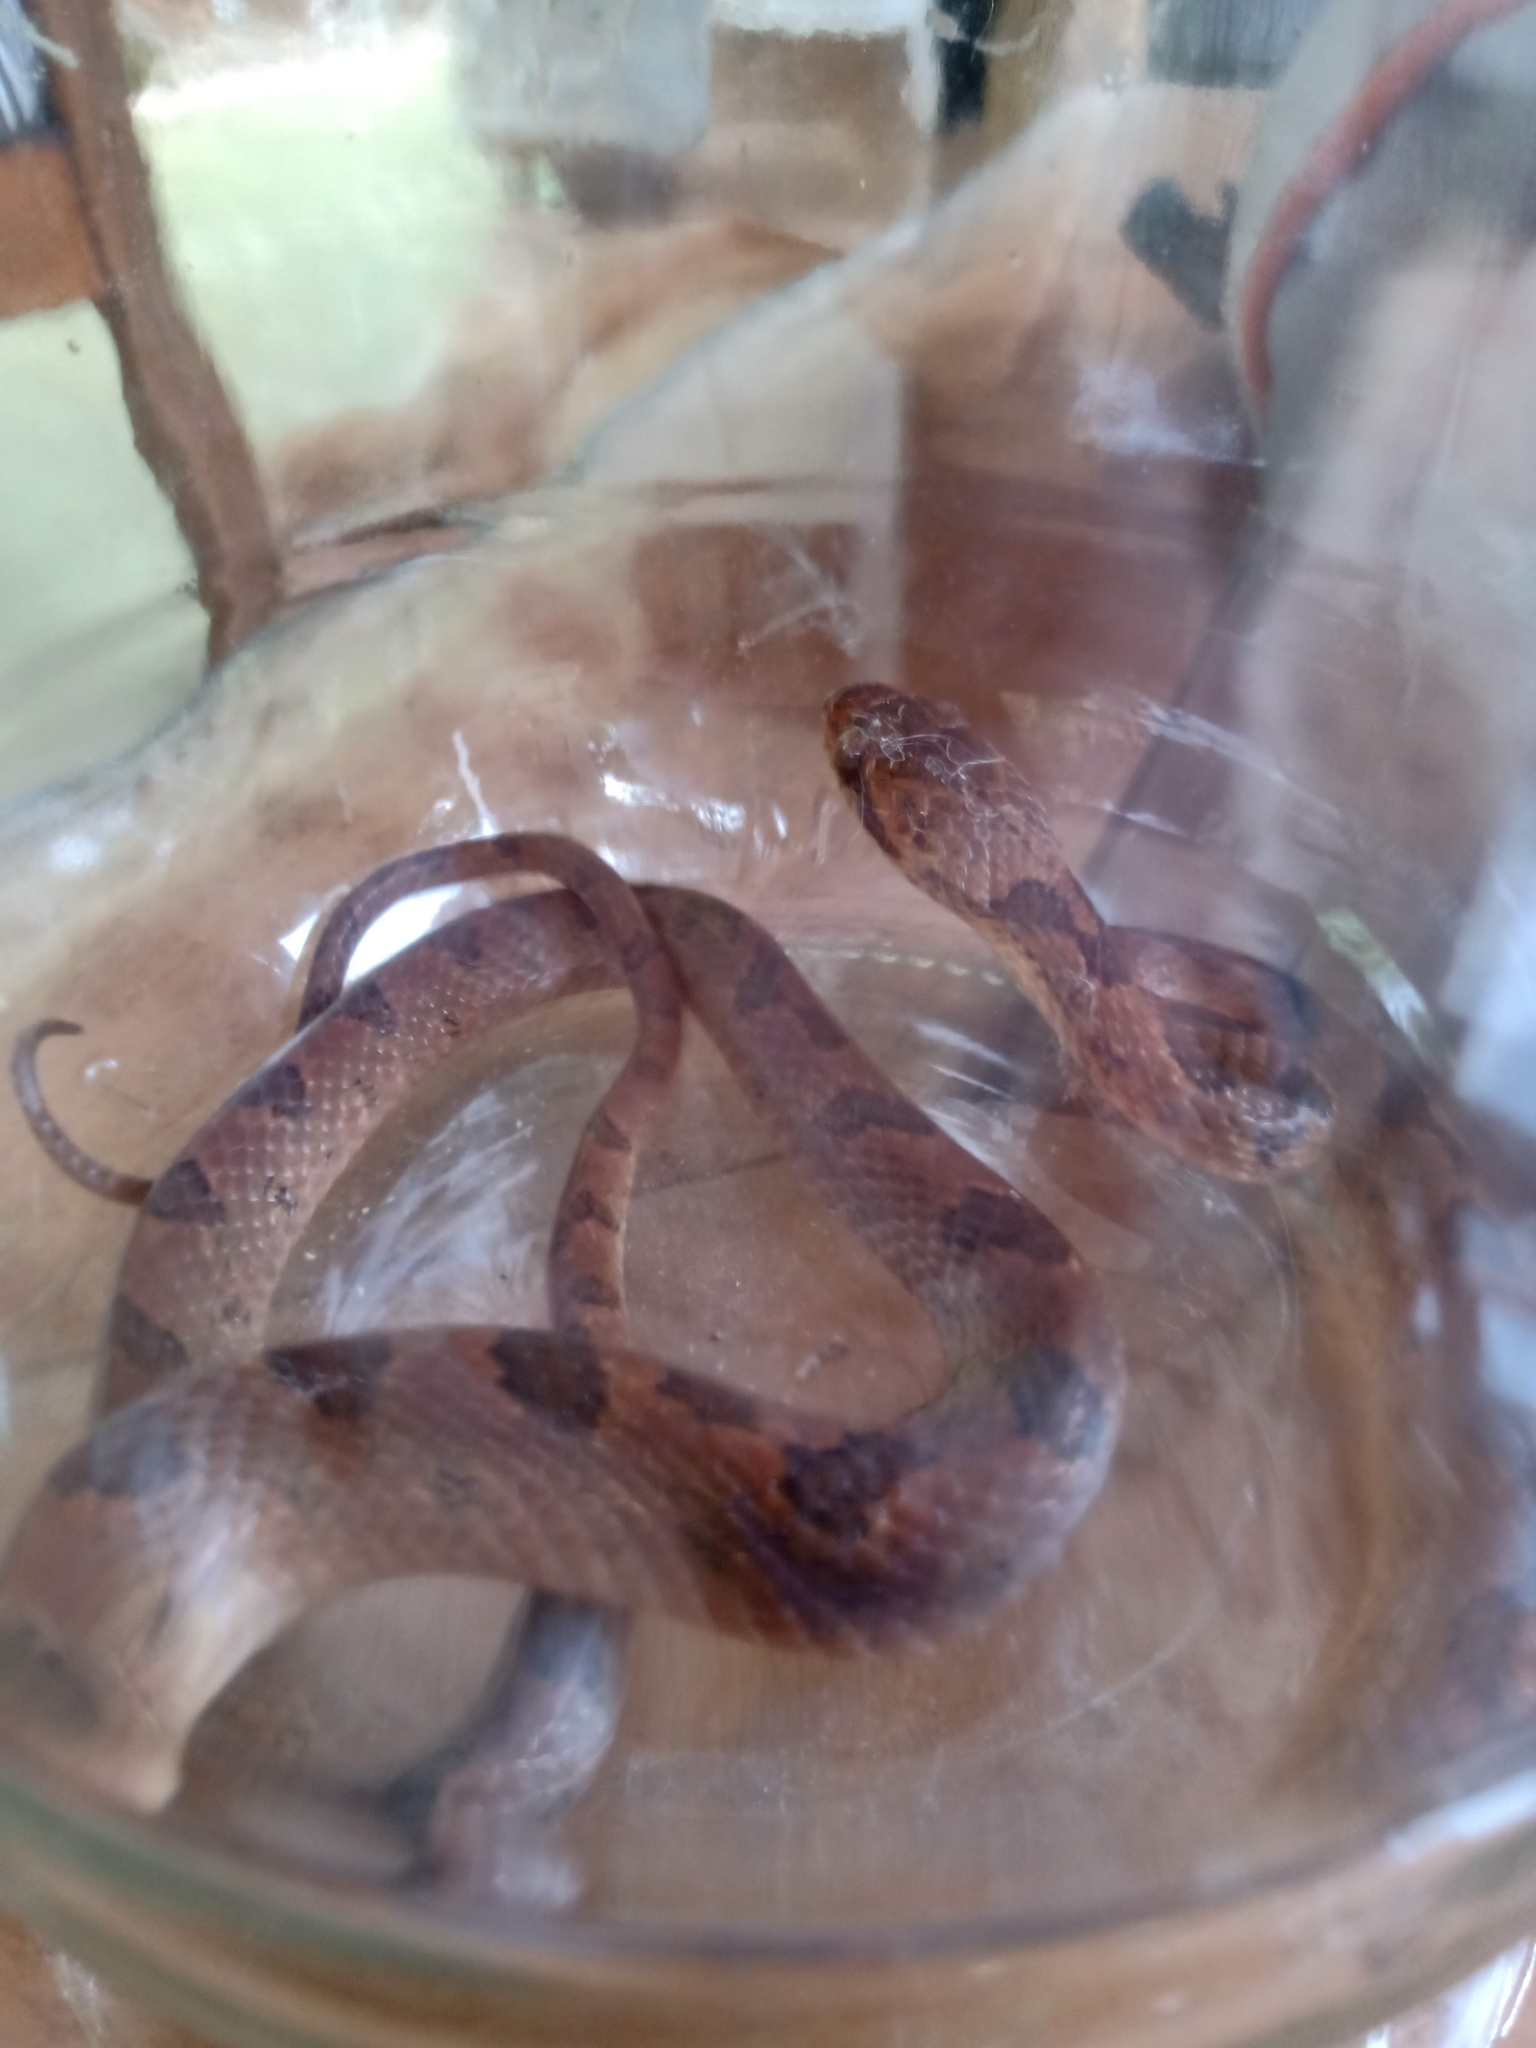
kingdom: Animalia
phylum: Chordata
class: Squamata
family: Colubridae
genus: Leptodeira
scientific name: Leptodeira ornata
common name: Northern cat-eyed snake
